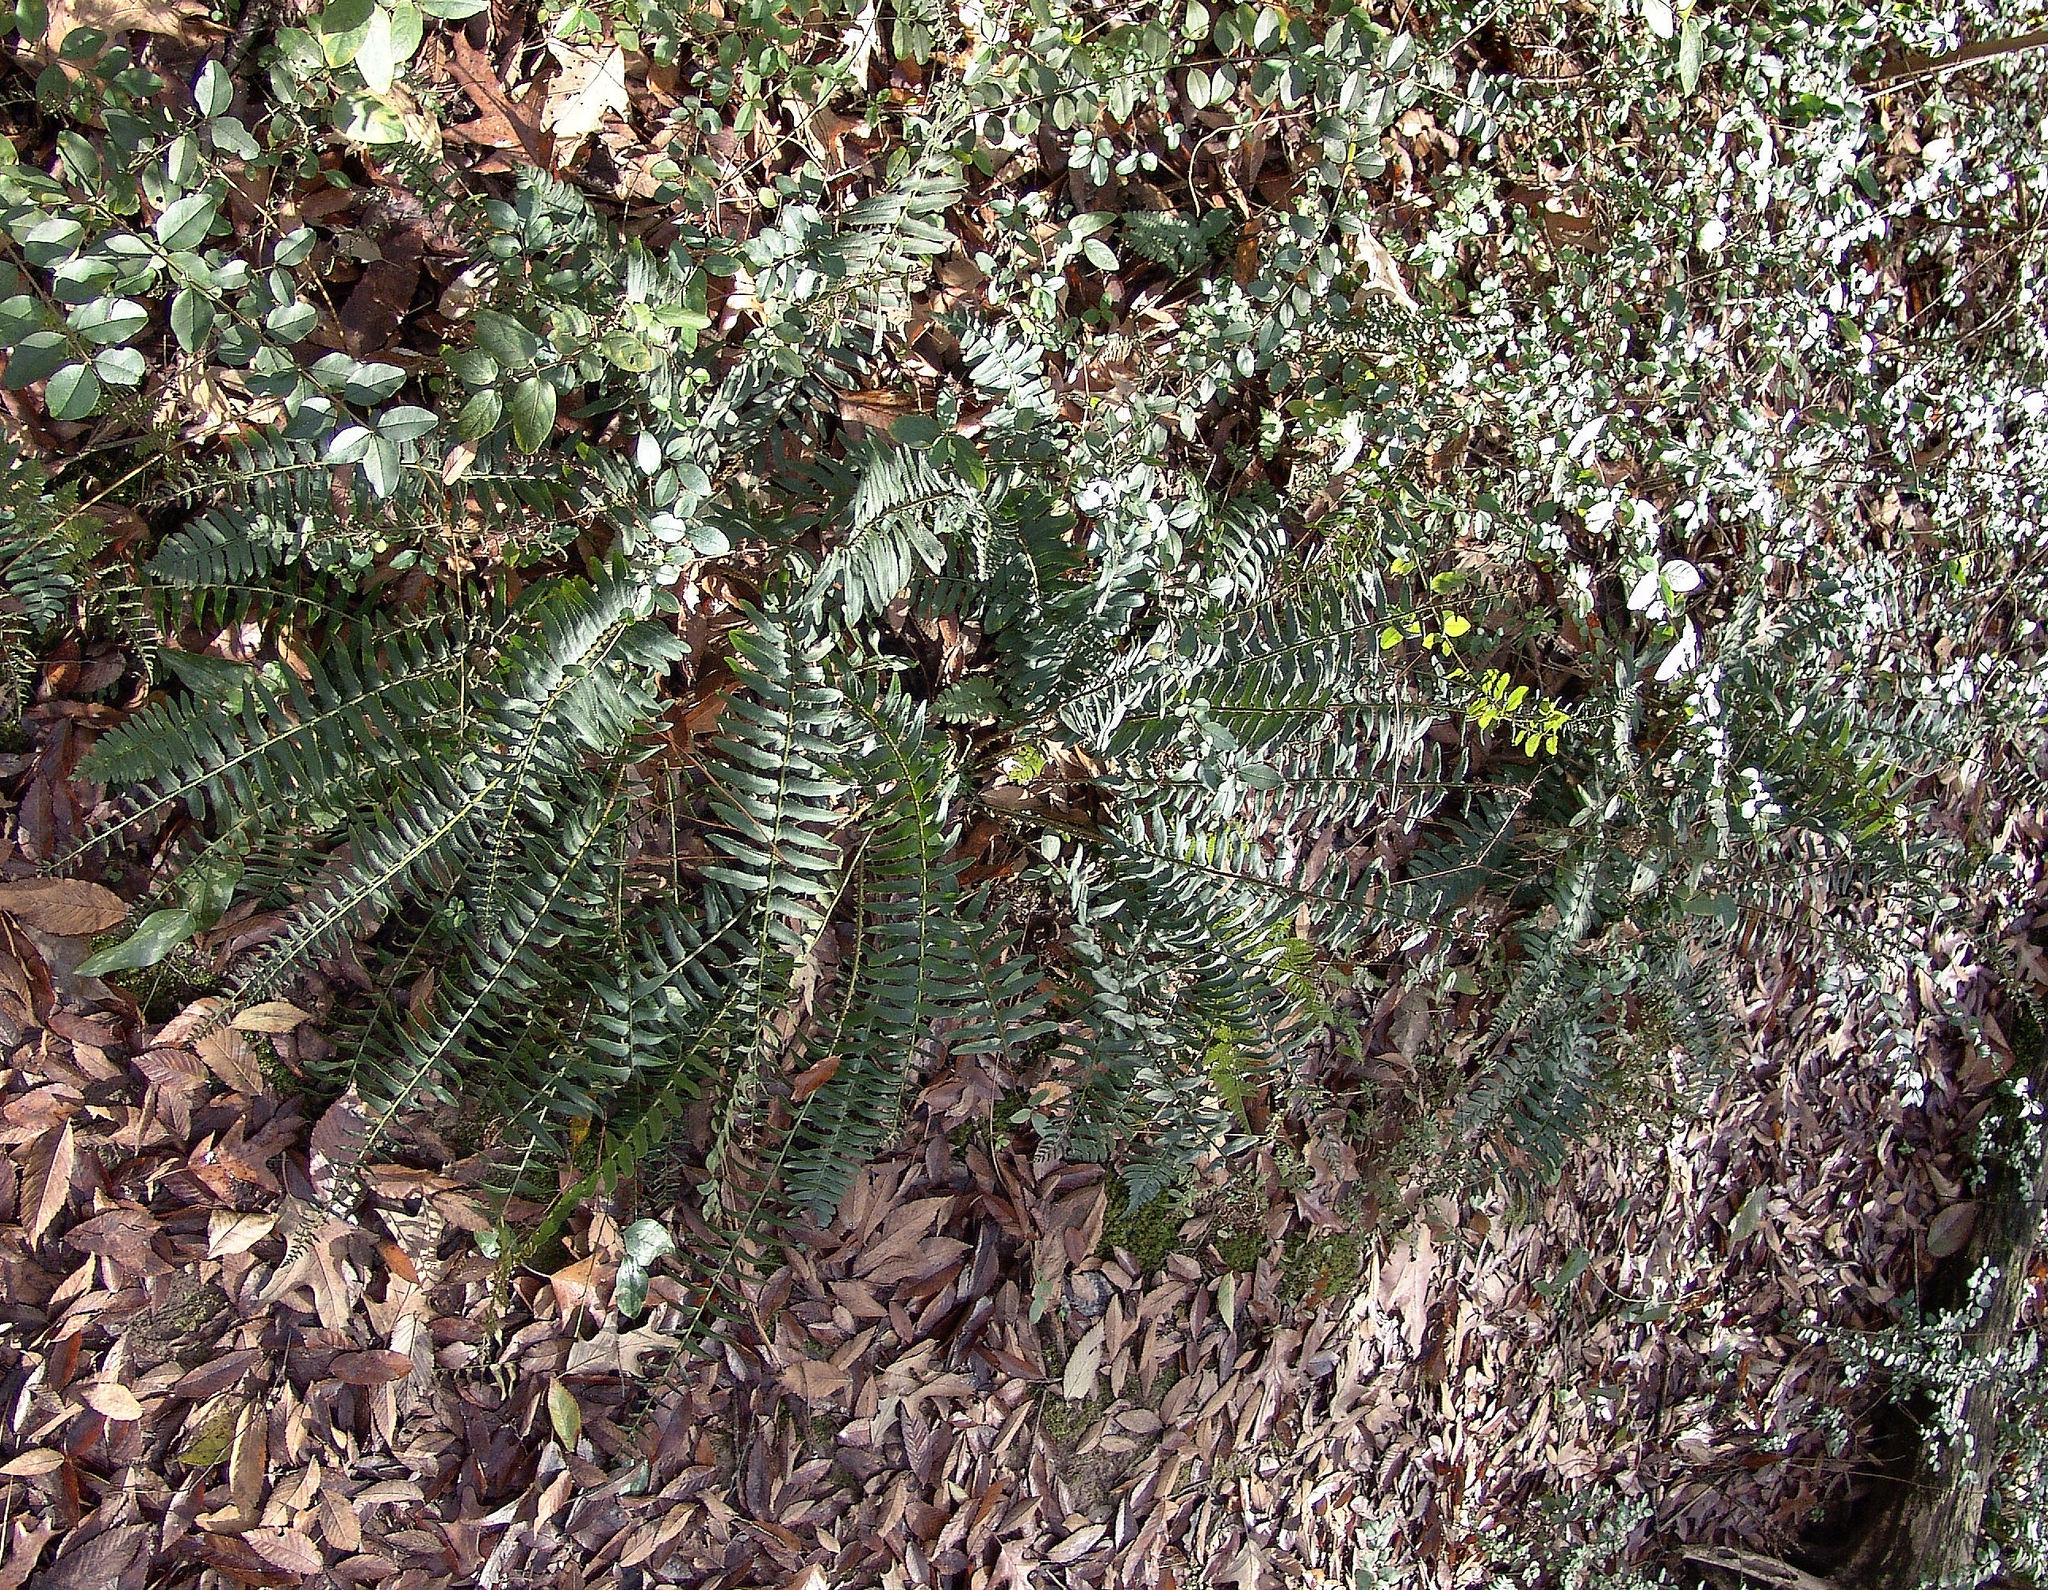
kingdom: Plantae
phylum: Tracheophyta
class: Polypodiopsida
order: Polypodiales
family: Dryopteridaceae
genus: Polystichum
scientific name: Polystichum acrostichoides
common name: Christmas fern
